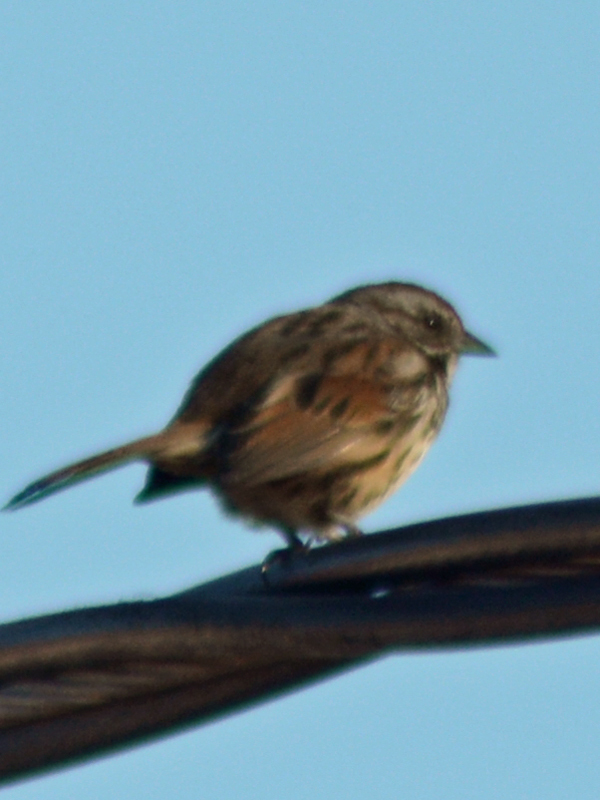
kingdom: Animalia
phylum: Chordata
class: Aves
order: Passeriformes
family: Passerellidae
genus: Melospiza
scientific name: Melospiza melodia
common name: Song sparrow
